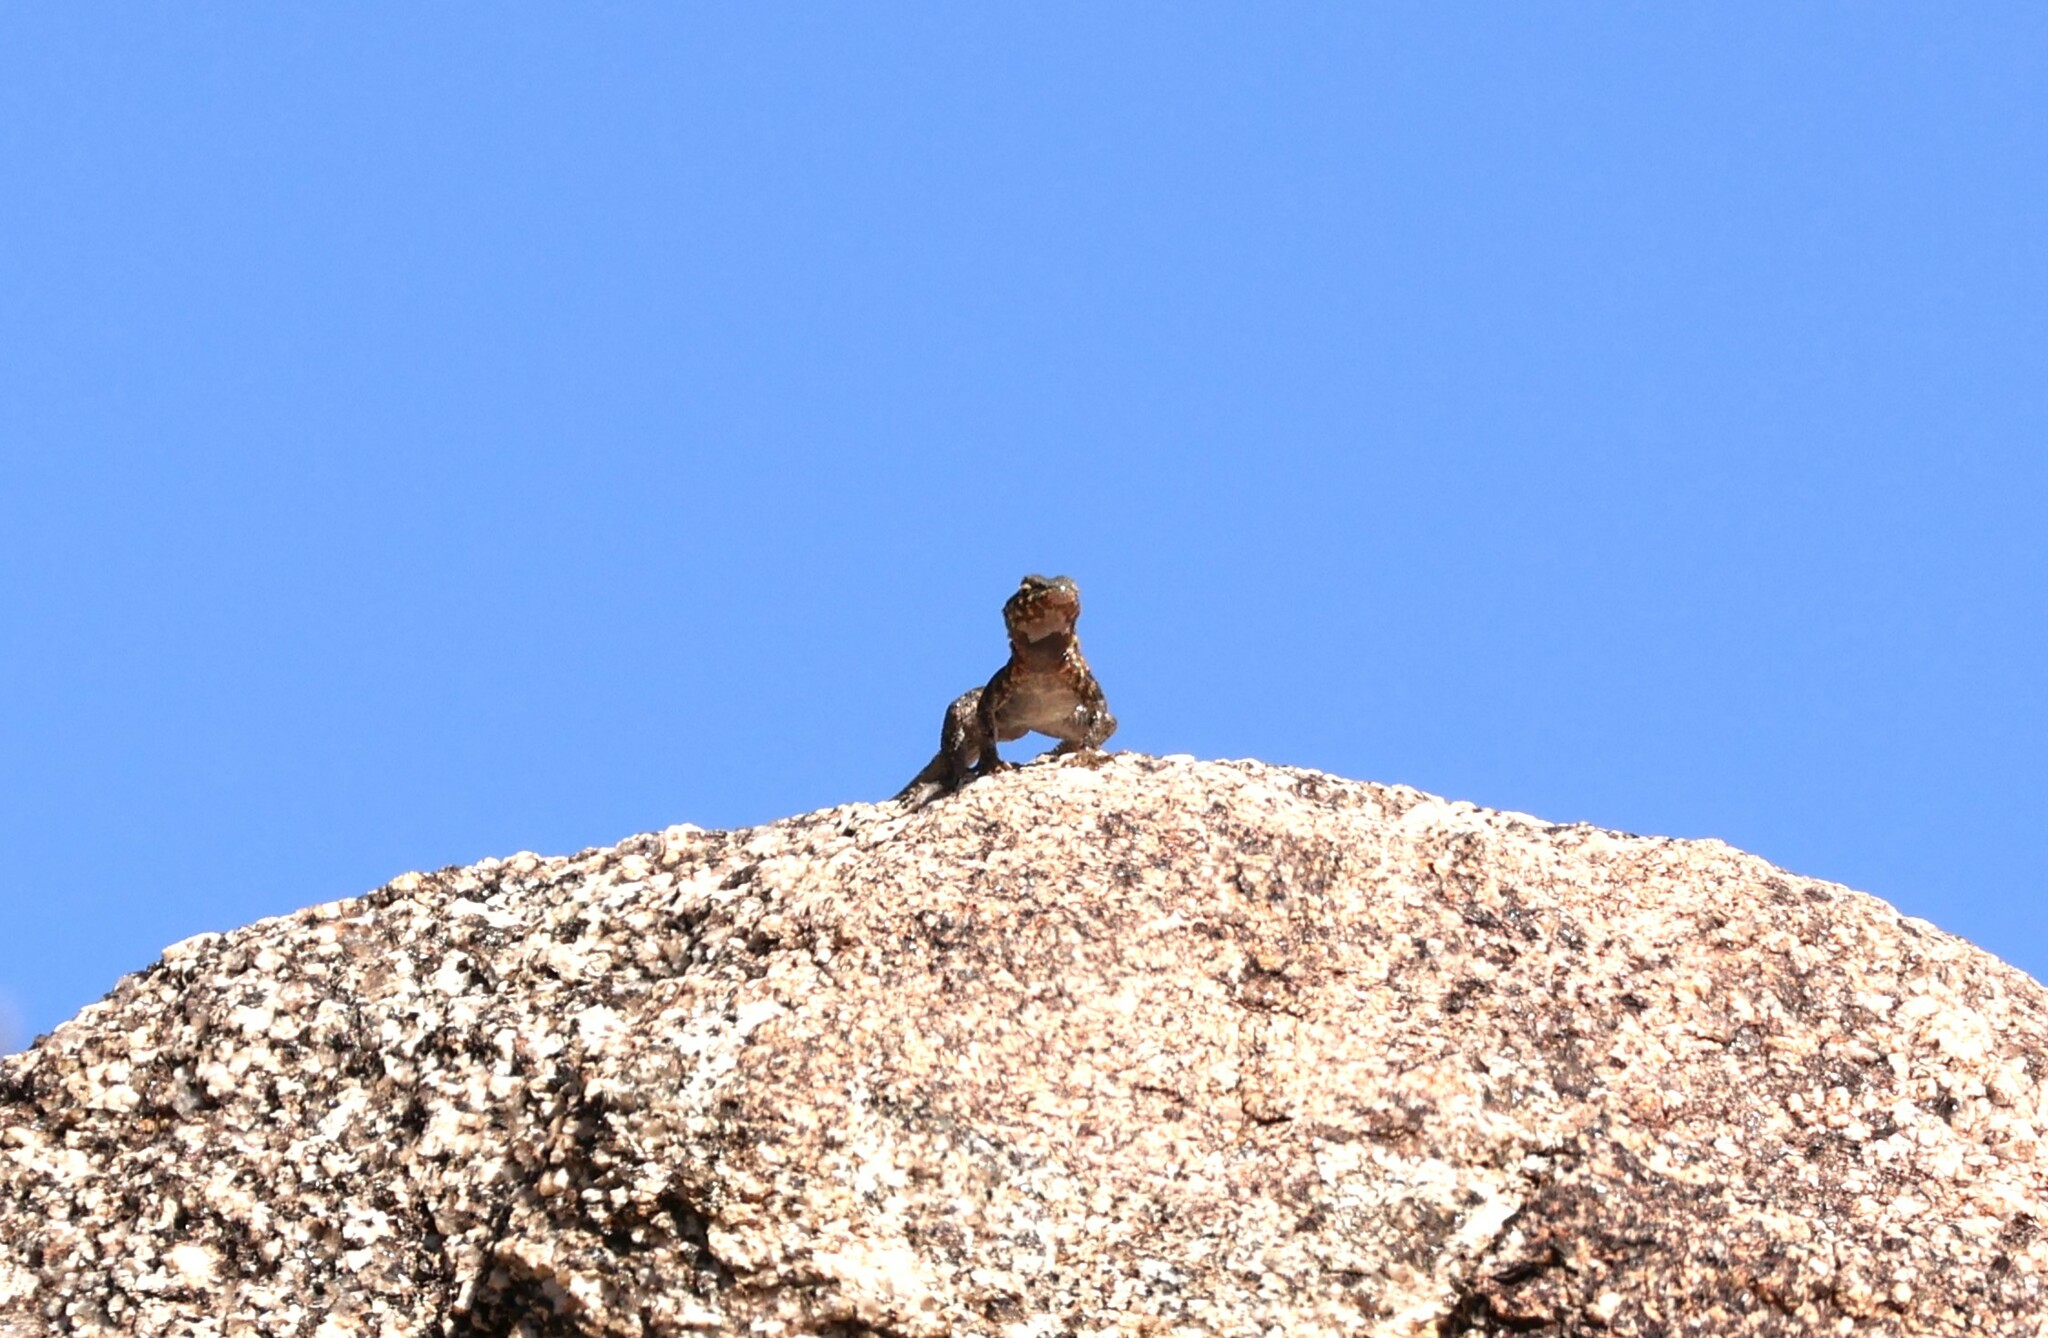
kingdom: Animalia
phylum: Chordata
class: Squamata
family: Phrynosomatidae
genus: Uta
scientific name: Uta stansburiana
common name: Side-blotched lizard
